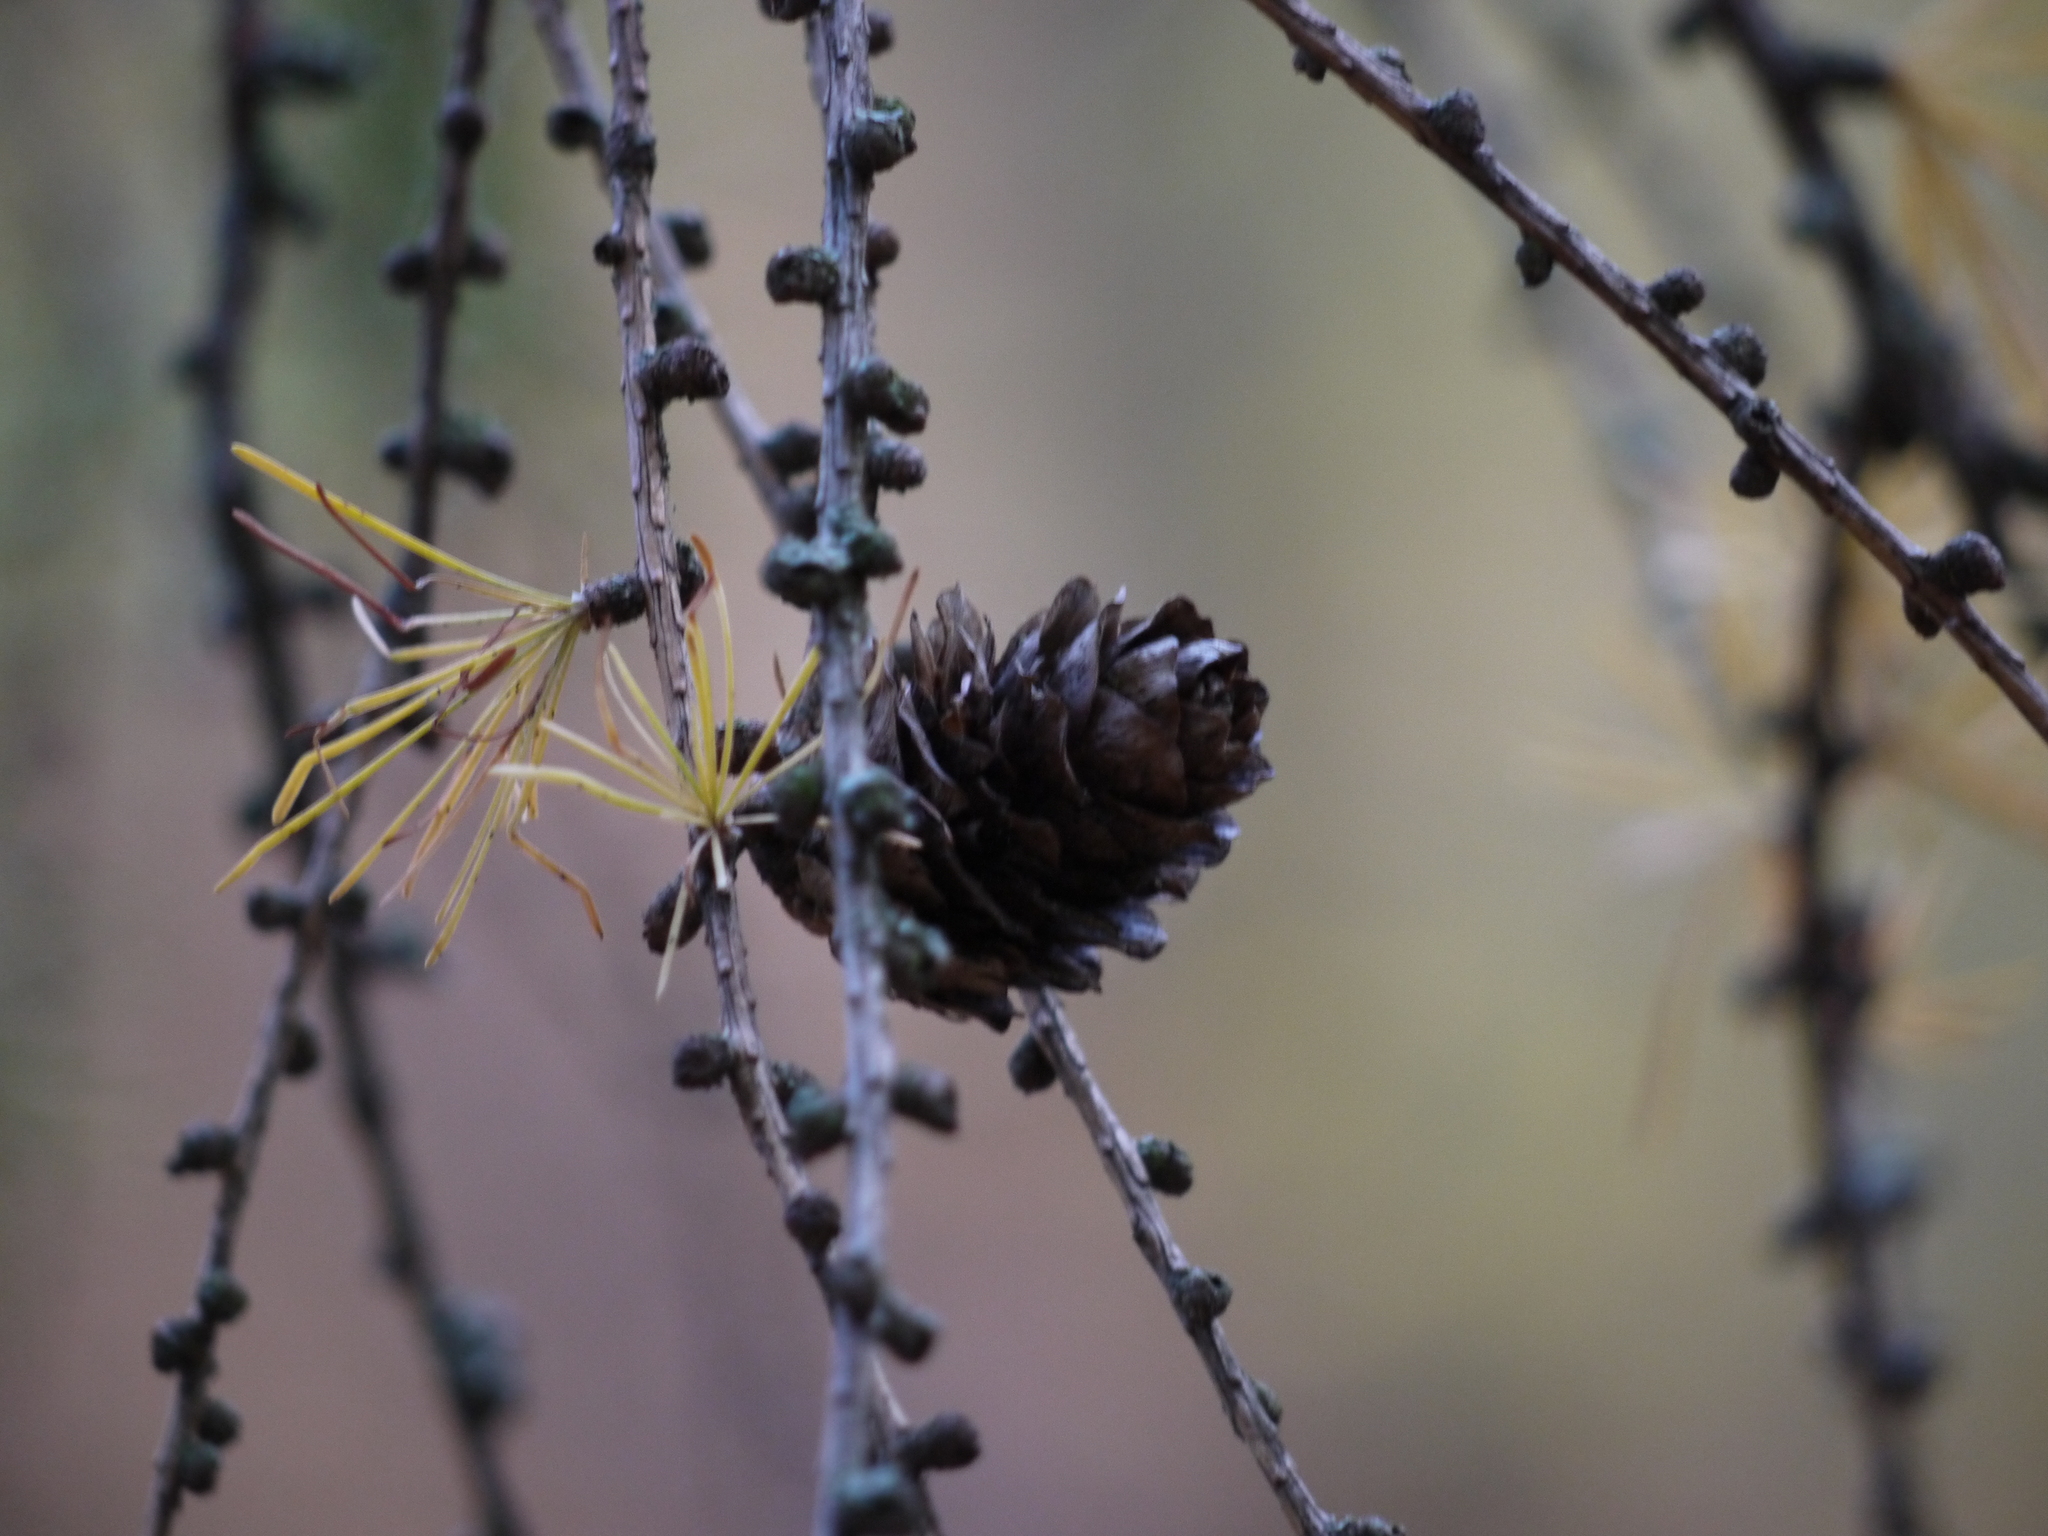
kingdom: Plantae
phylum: Tracheophyta
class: Pinopsida
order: Pinales
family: Pinaceae
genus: Larix
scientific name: Larix decidua
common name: European larch
